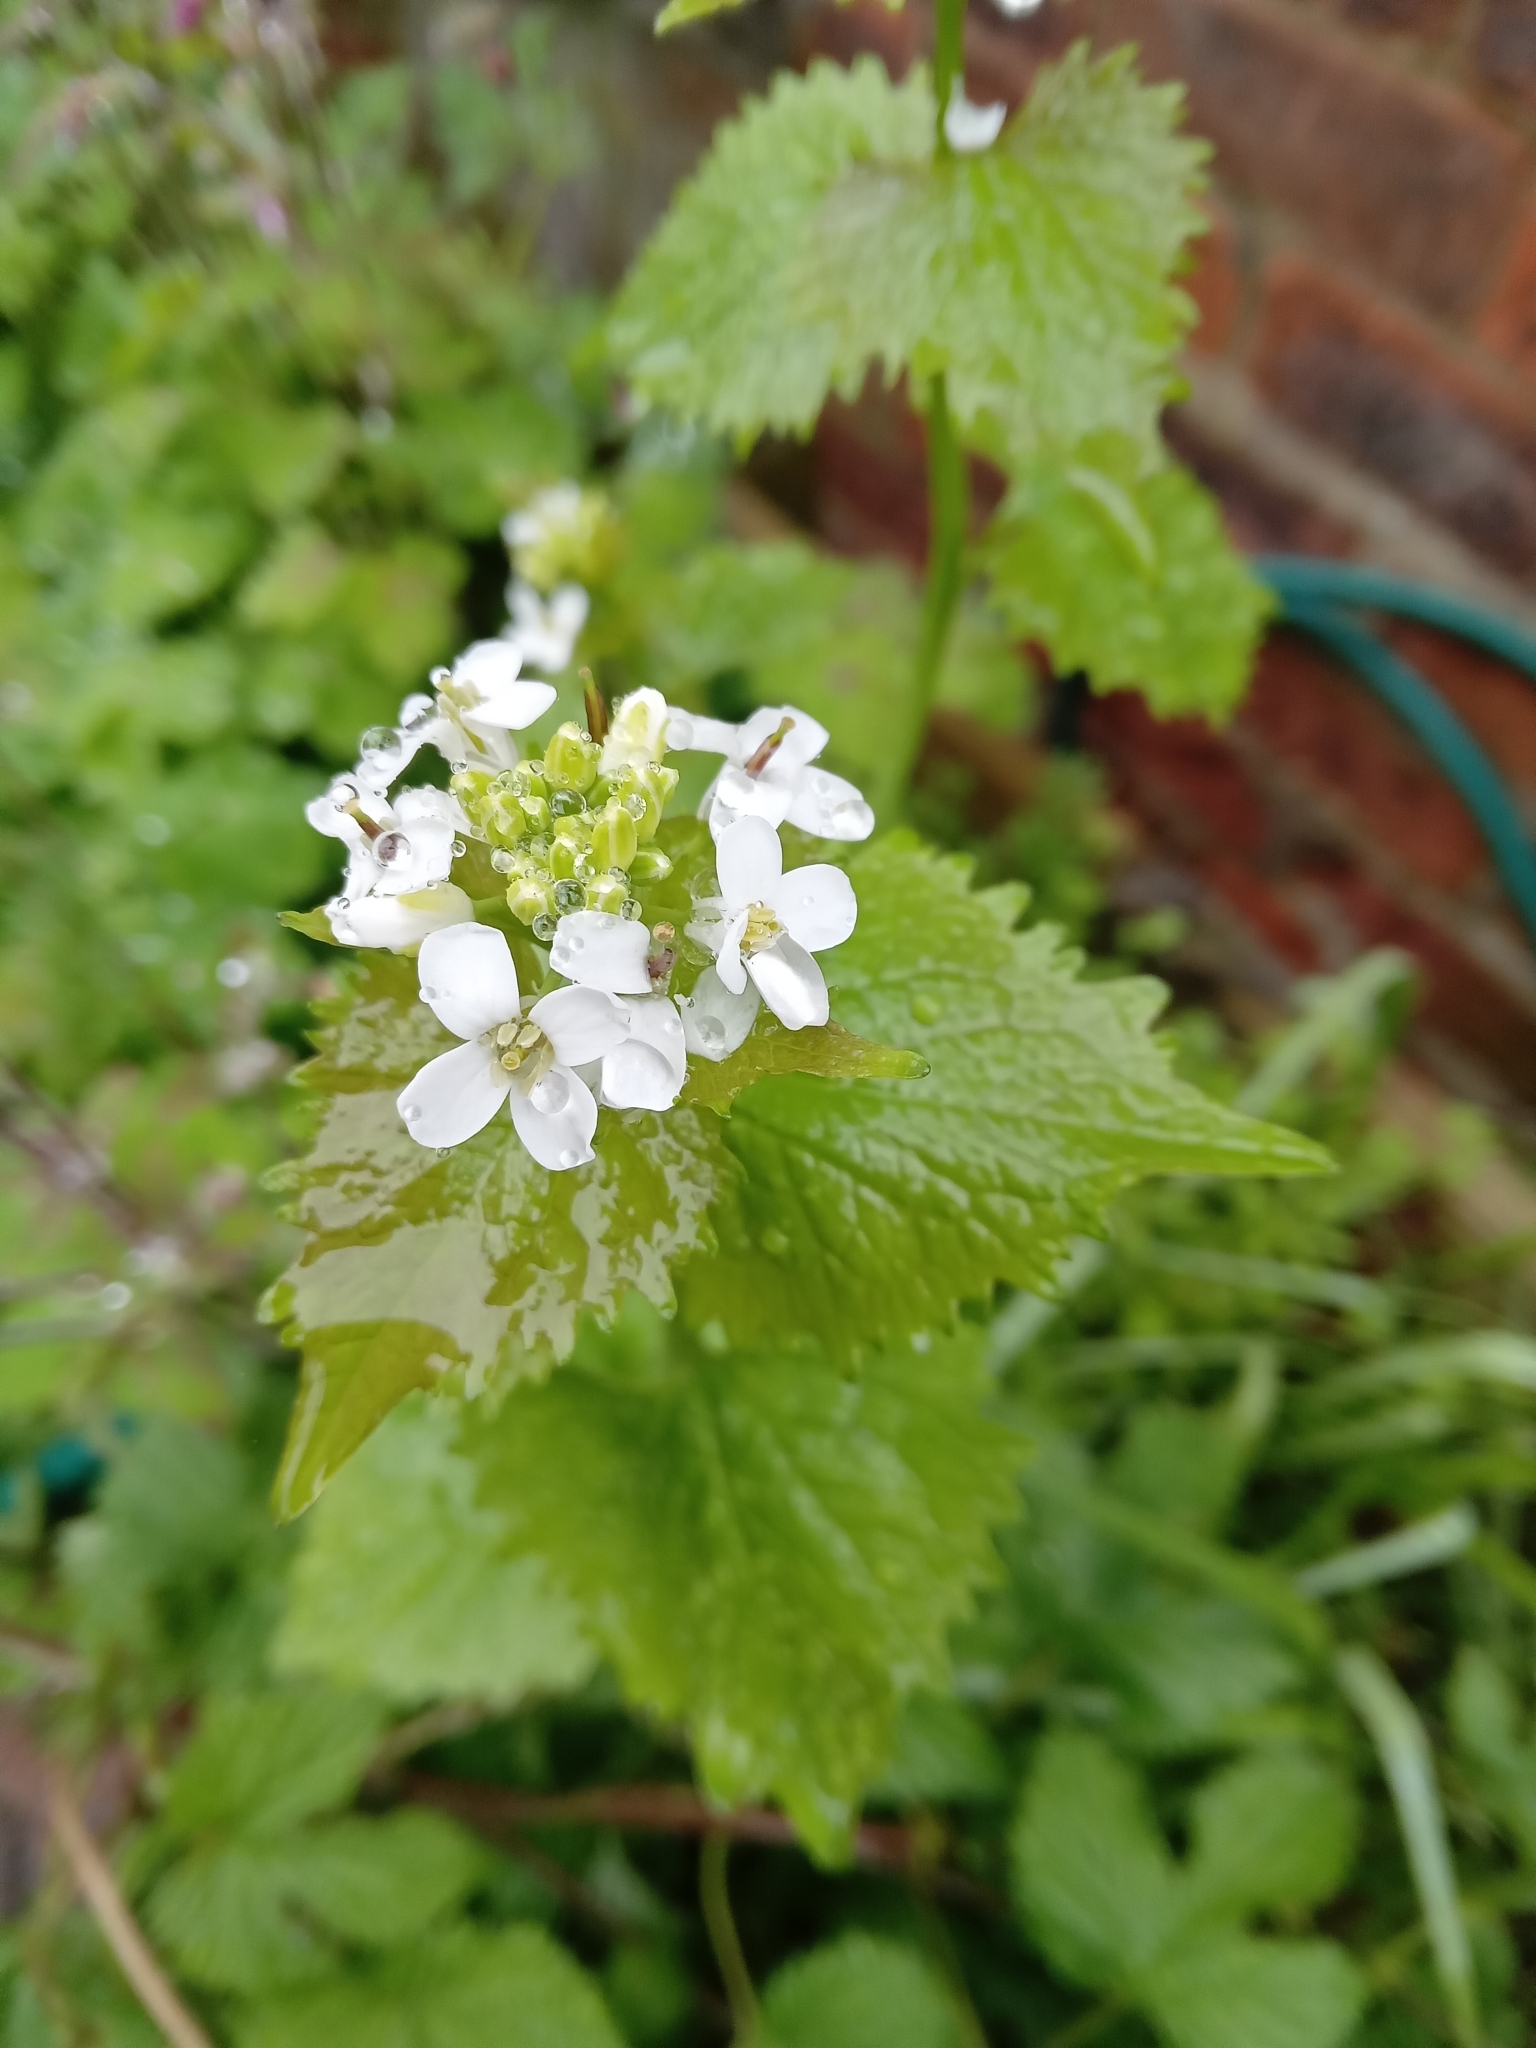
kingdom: Plantae
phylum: Tracheophyta
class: Magnoliopsida
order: Brassicales
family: Brassicaceae
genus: Alliaria
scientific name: Alliaria petiolata
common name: Garlic mustard
